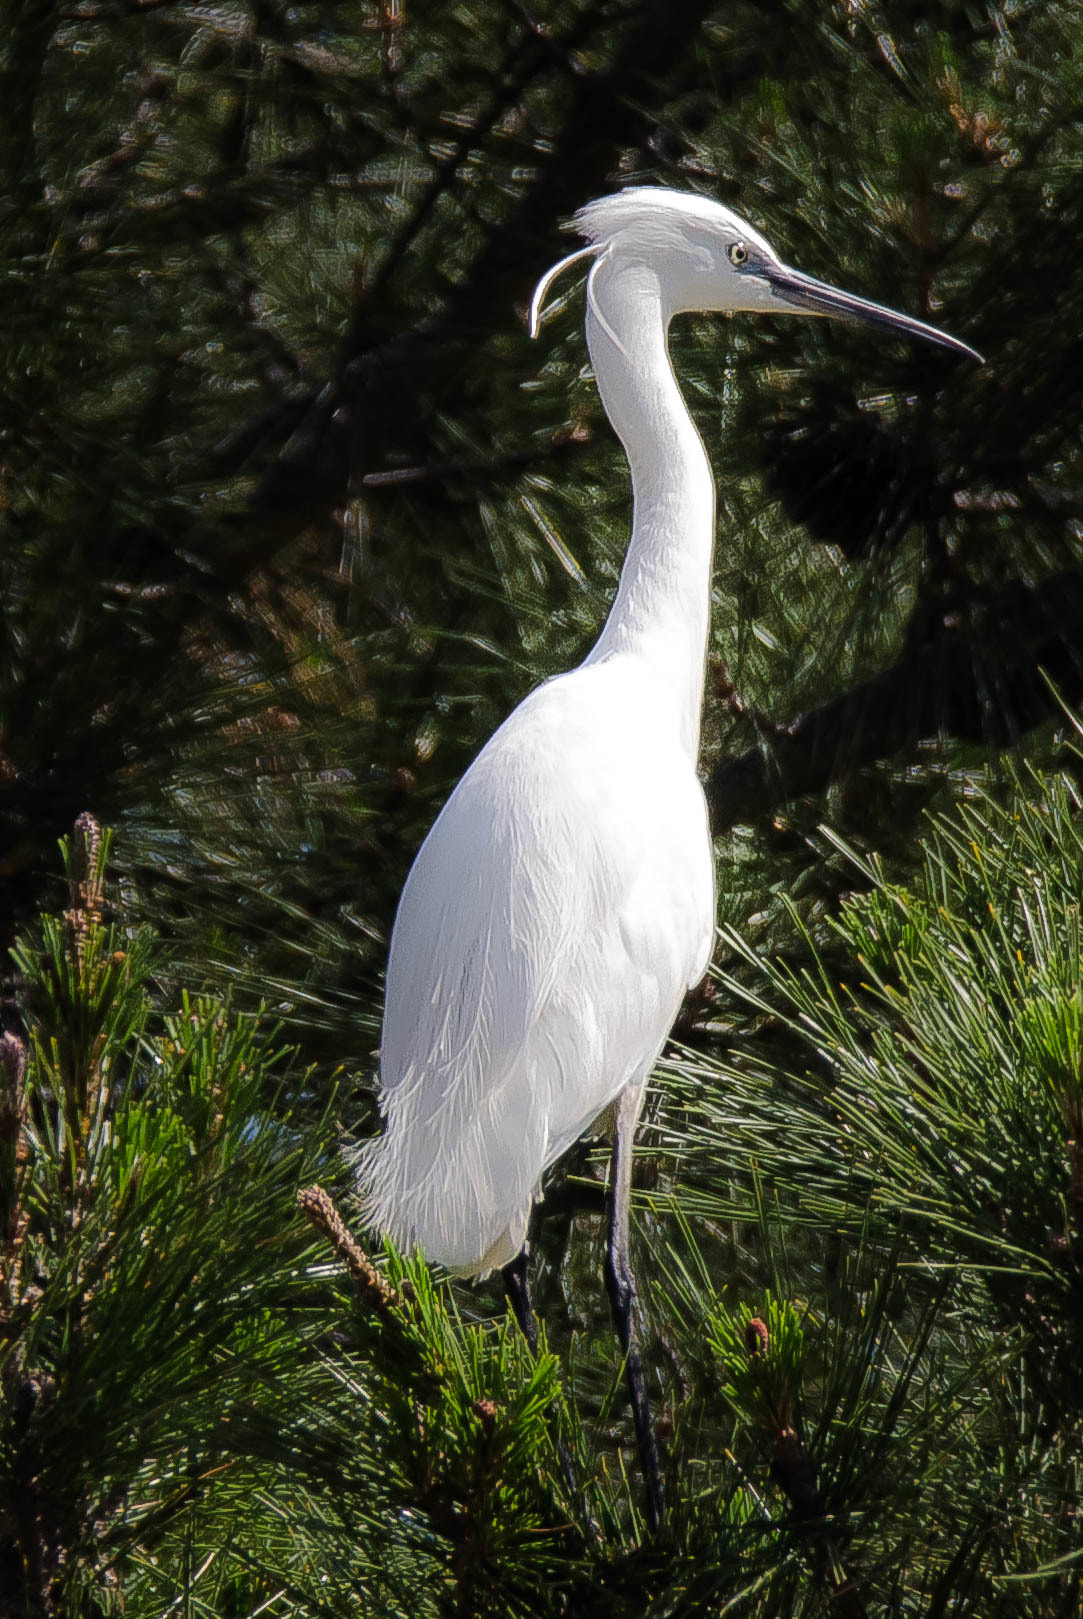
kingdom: Animalia
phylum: Chordata
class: Aves
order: Pelecaniformes
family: Ardeidae
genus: Egretta
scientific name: Egretta garzetta
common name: Little egret
